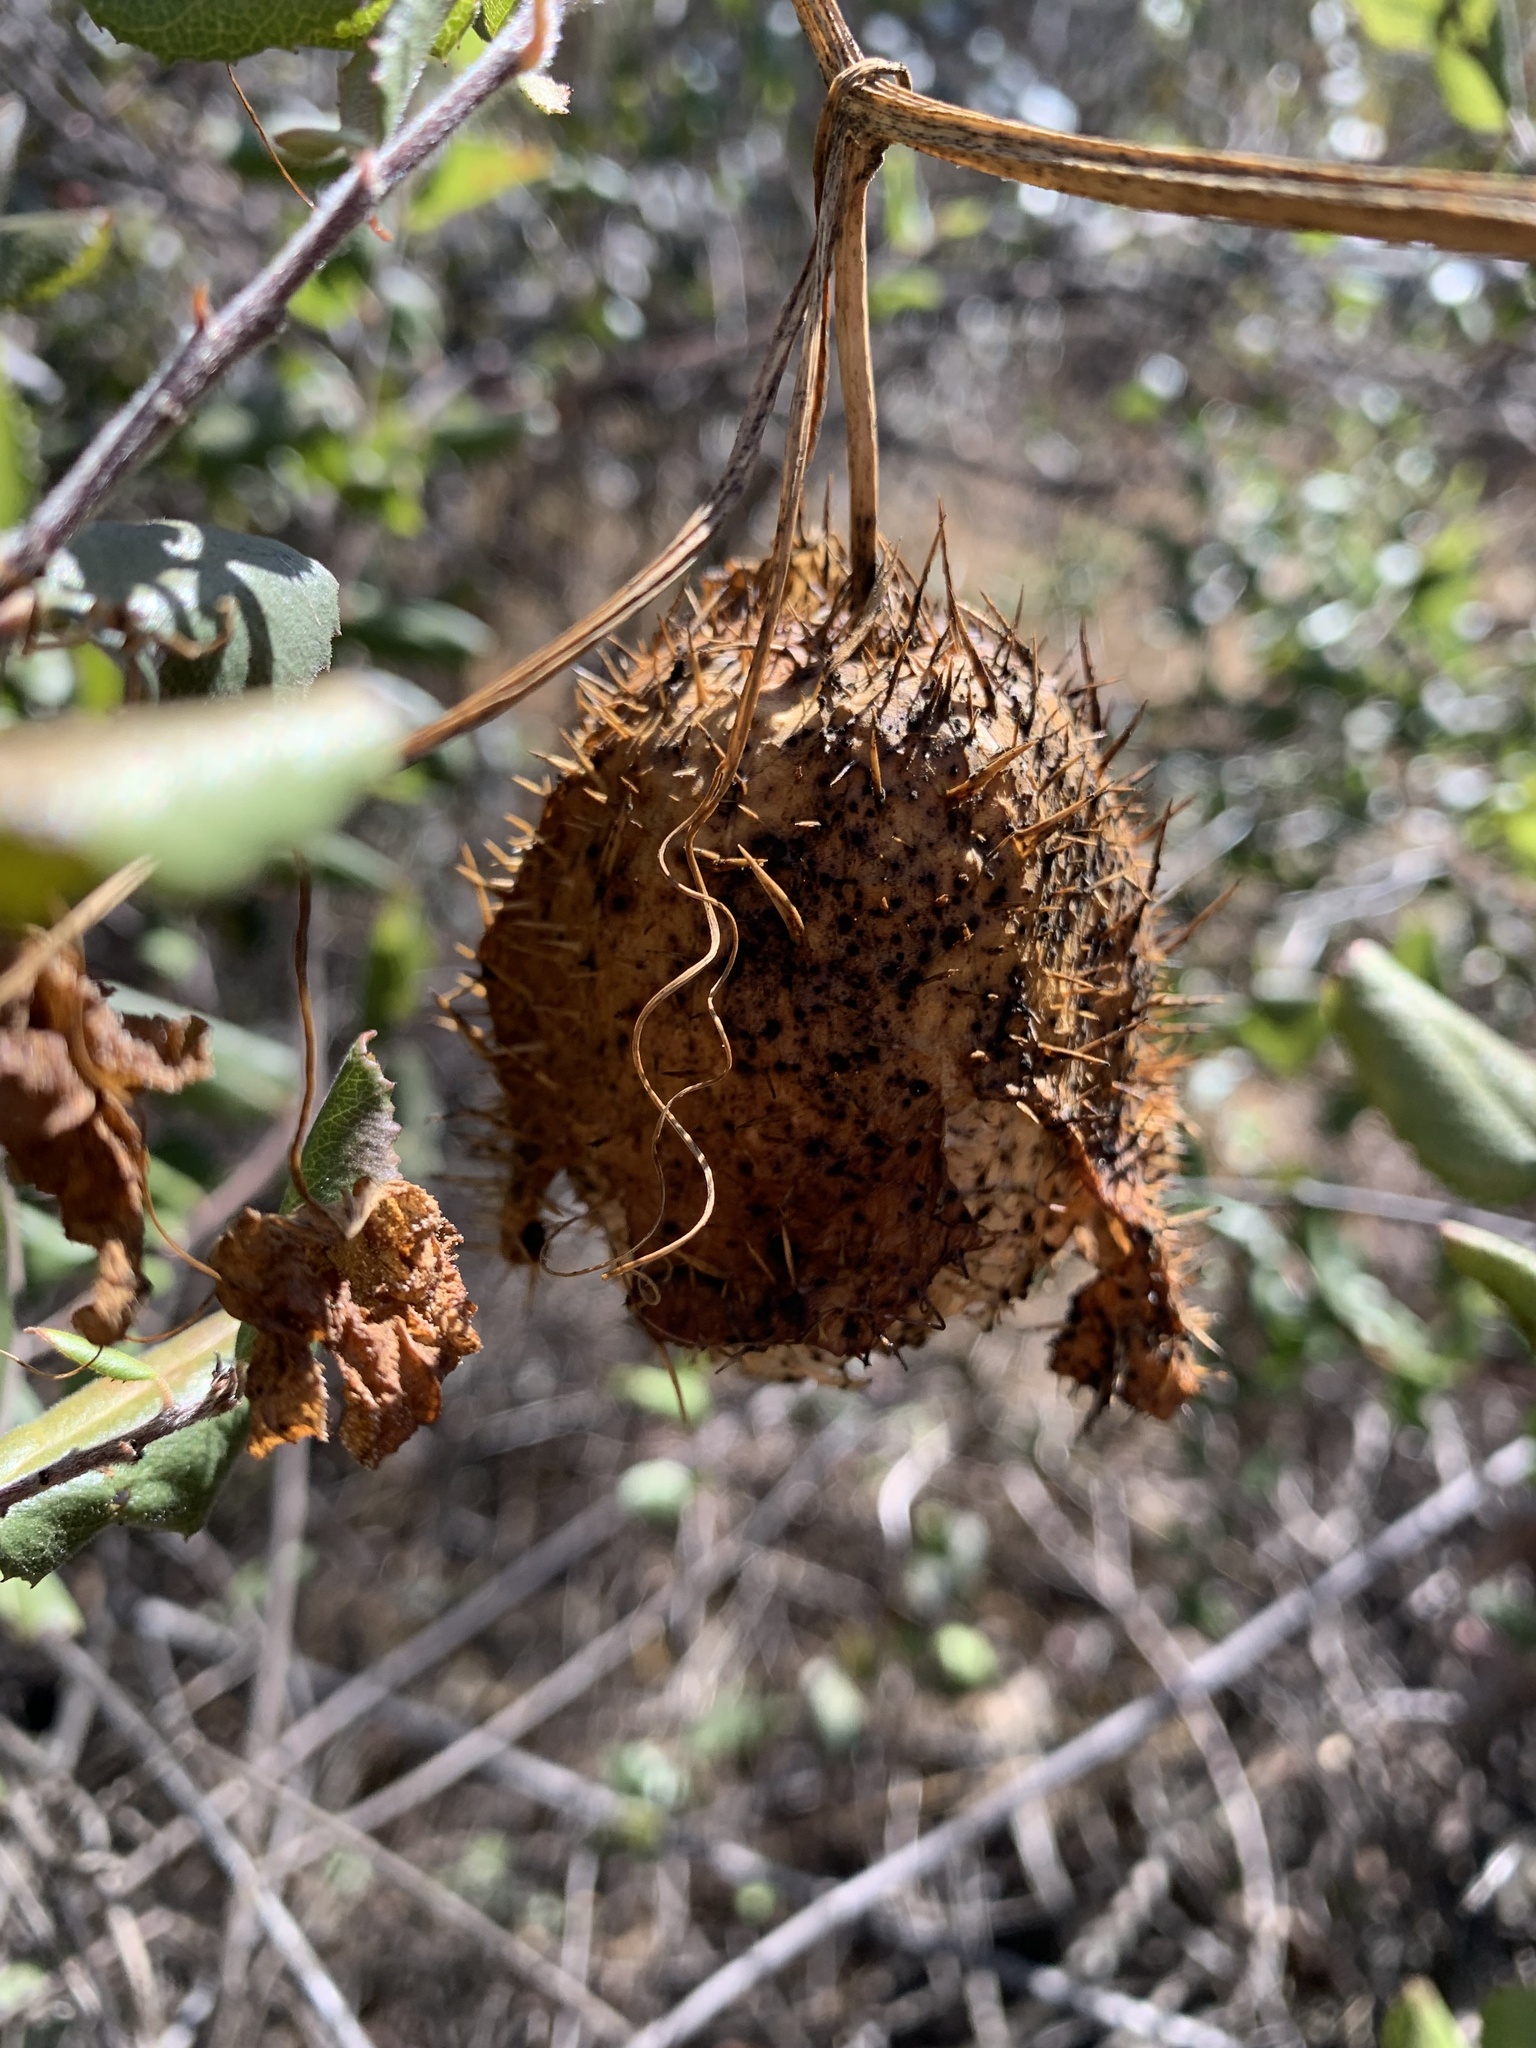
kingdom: Plantae
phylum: Tracheophyta
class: Magnoliopsida
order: Cucurbitales
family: Cucurbitaceae
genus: Marah
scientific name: Marah macrocarpa
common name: Cucamonga manroot
